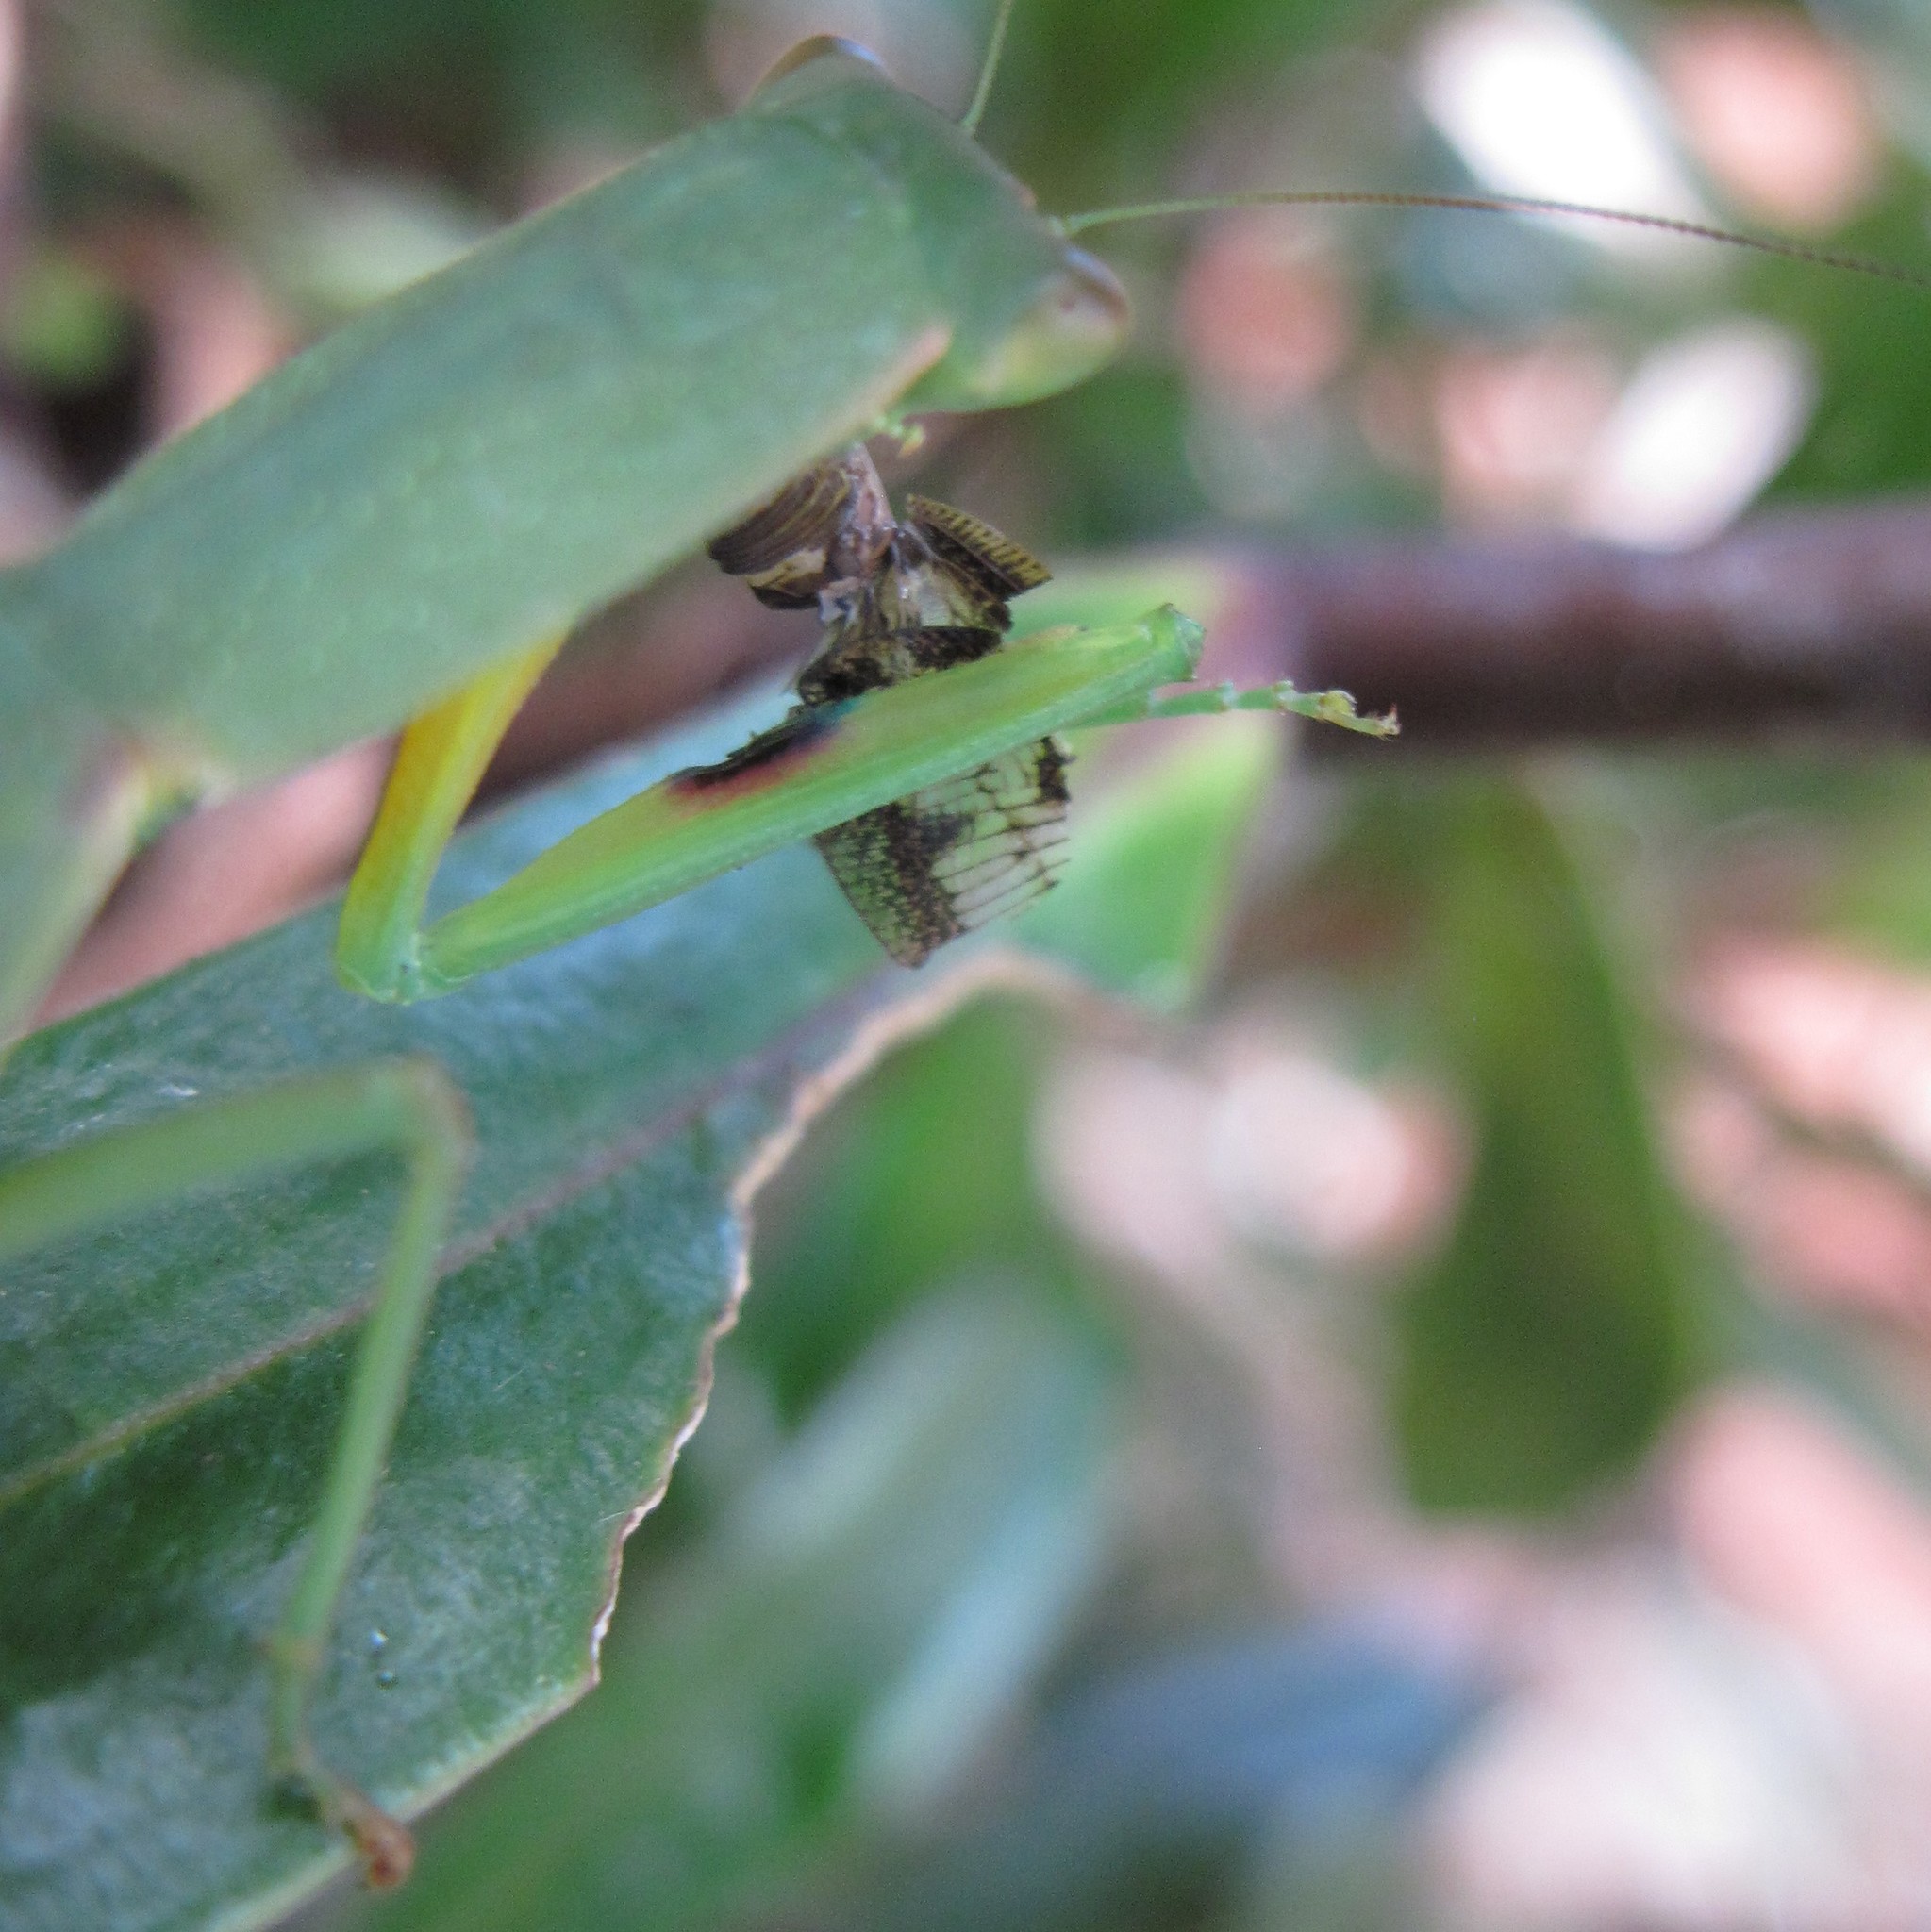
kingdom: Animalia
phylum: Arthropoda
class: Insecta
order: Mantodea
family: Mantidae
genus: Orthodera
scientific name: Orthodera novaezealandiae
